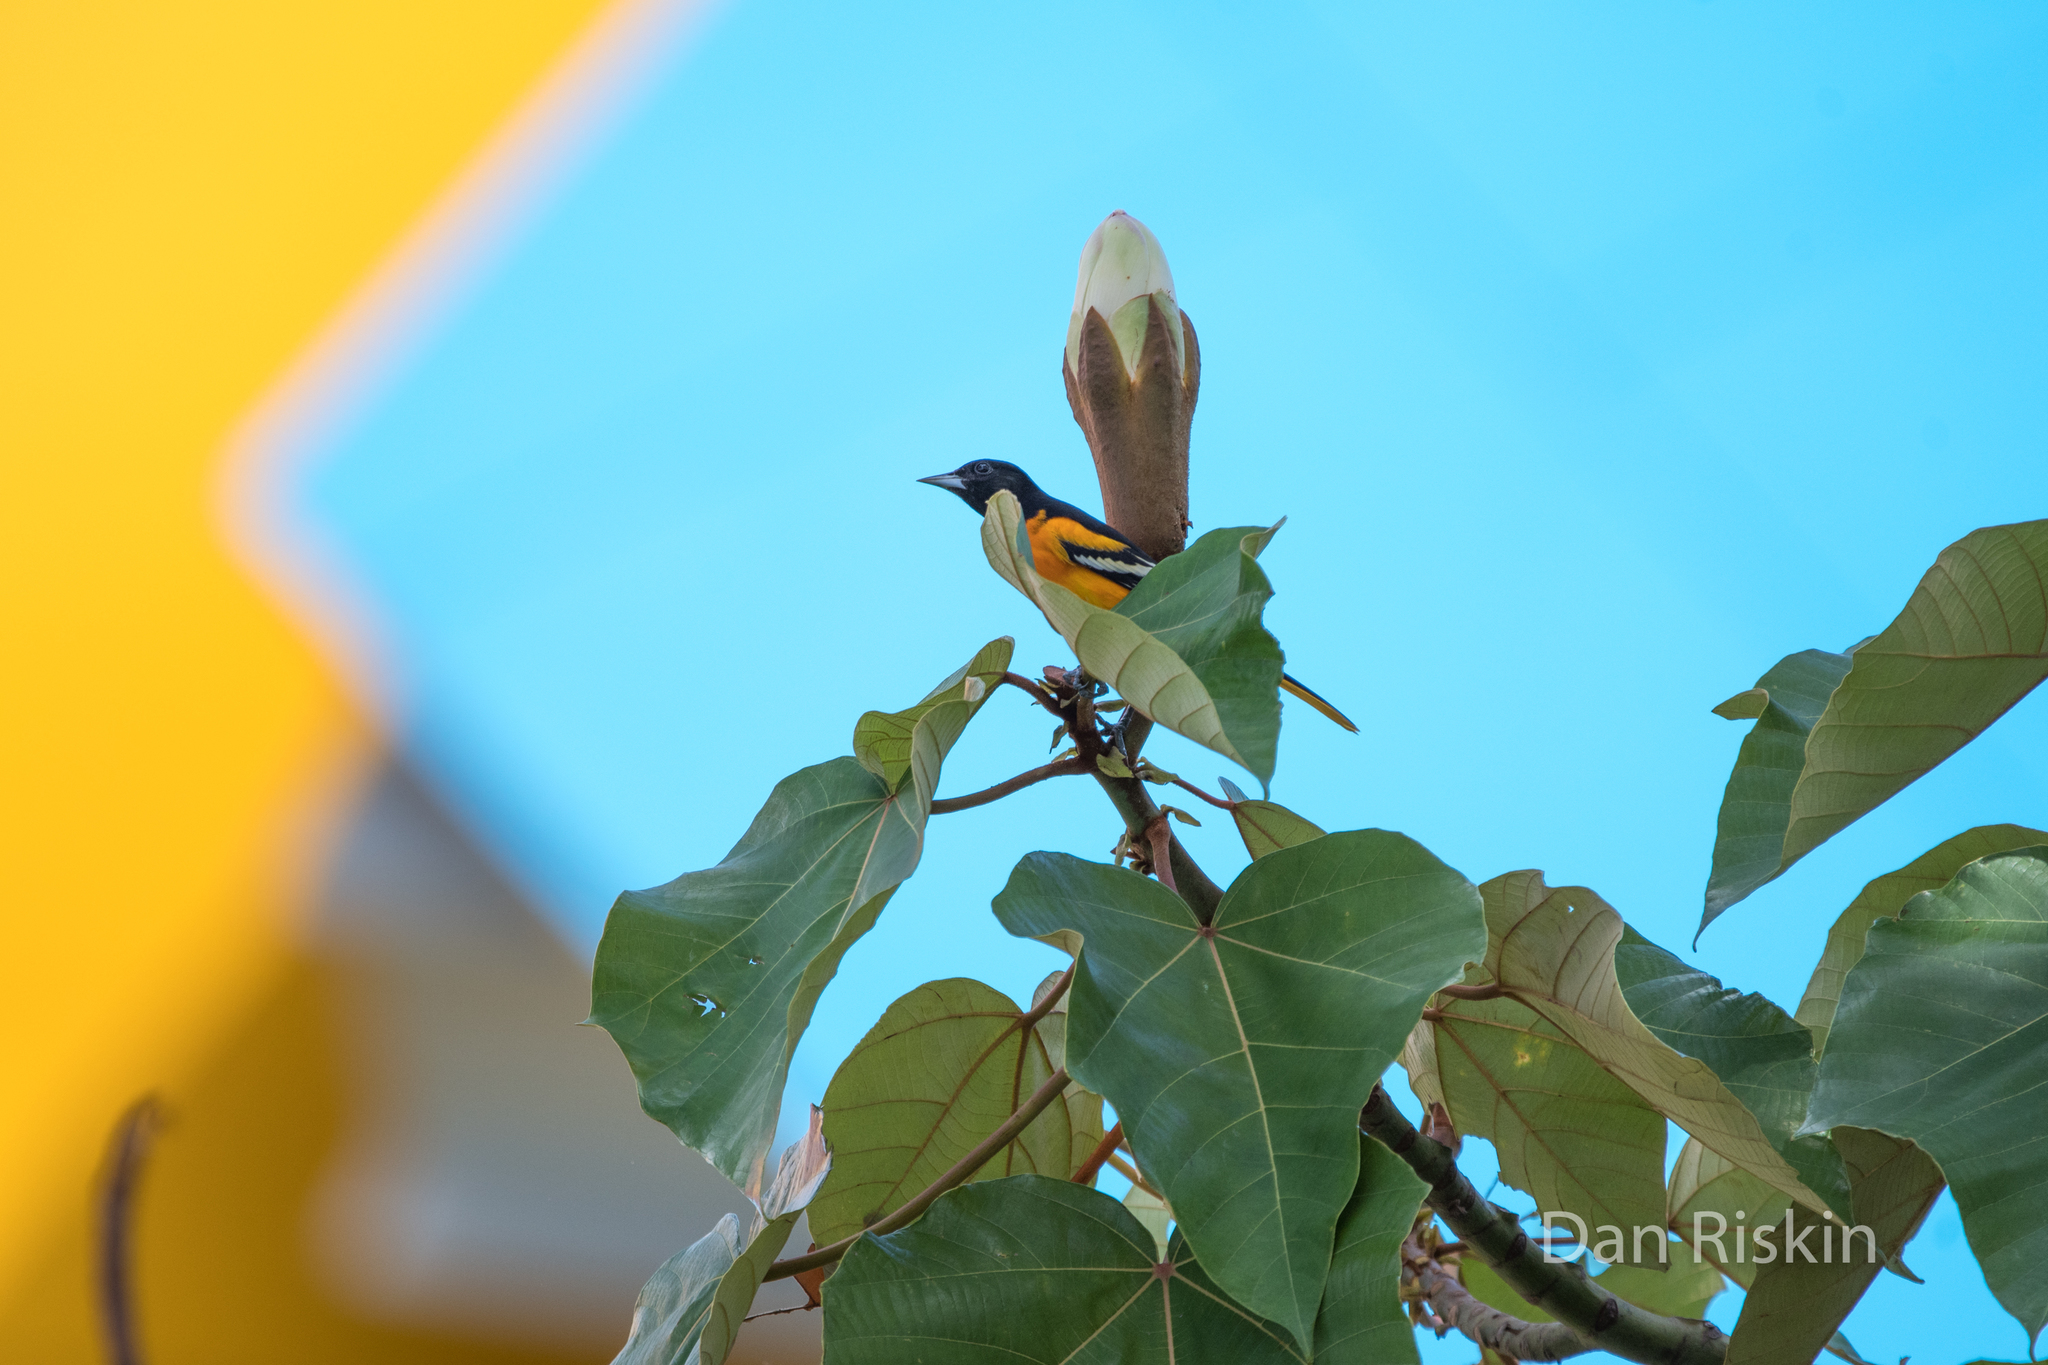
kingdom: Animalia
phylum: Chordata
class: Aves
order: Passeriformes
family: Icteridae
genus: Icterus
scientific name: Icterus galbula
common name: Baltimore oriole
